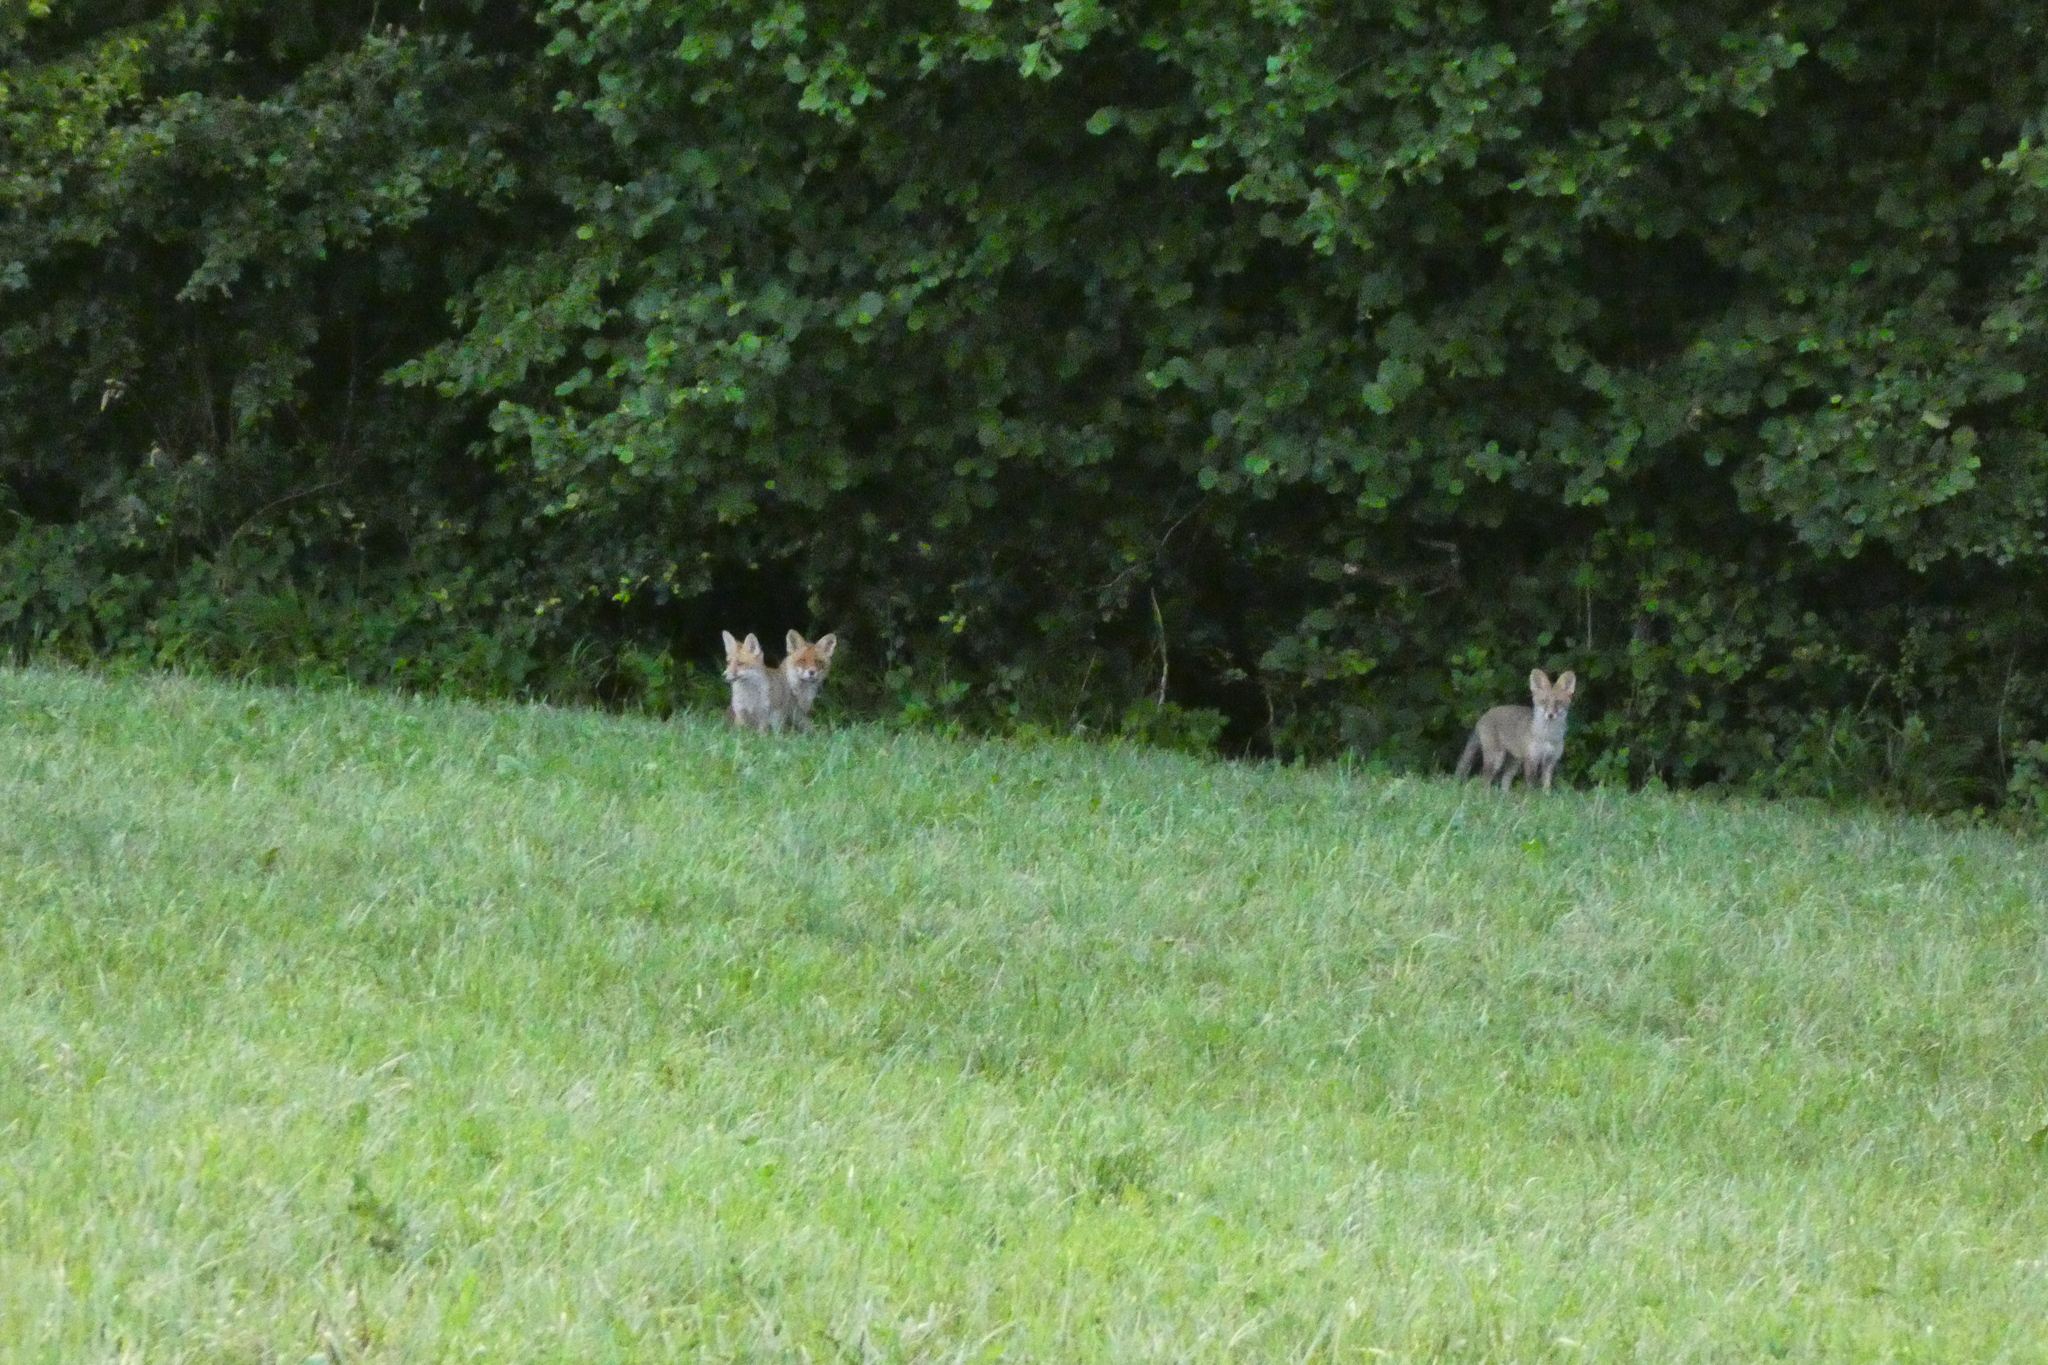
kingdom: Animalia
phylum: Chordata
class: Mammalia
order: Carnivora
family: Canidae
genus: Vulpes
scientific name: Vulpes vulpes
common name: Red fox
